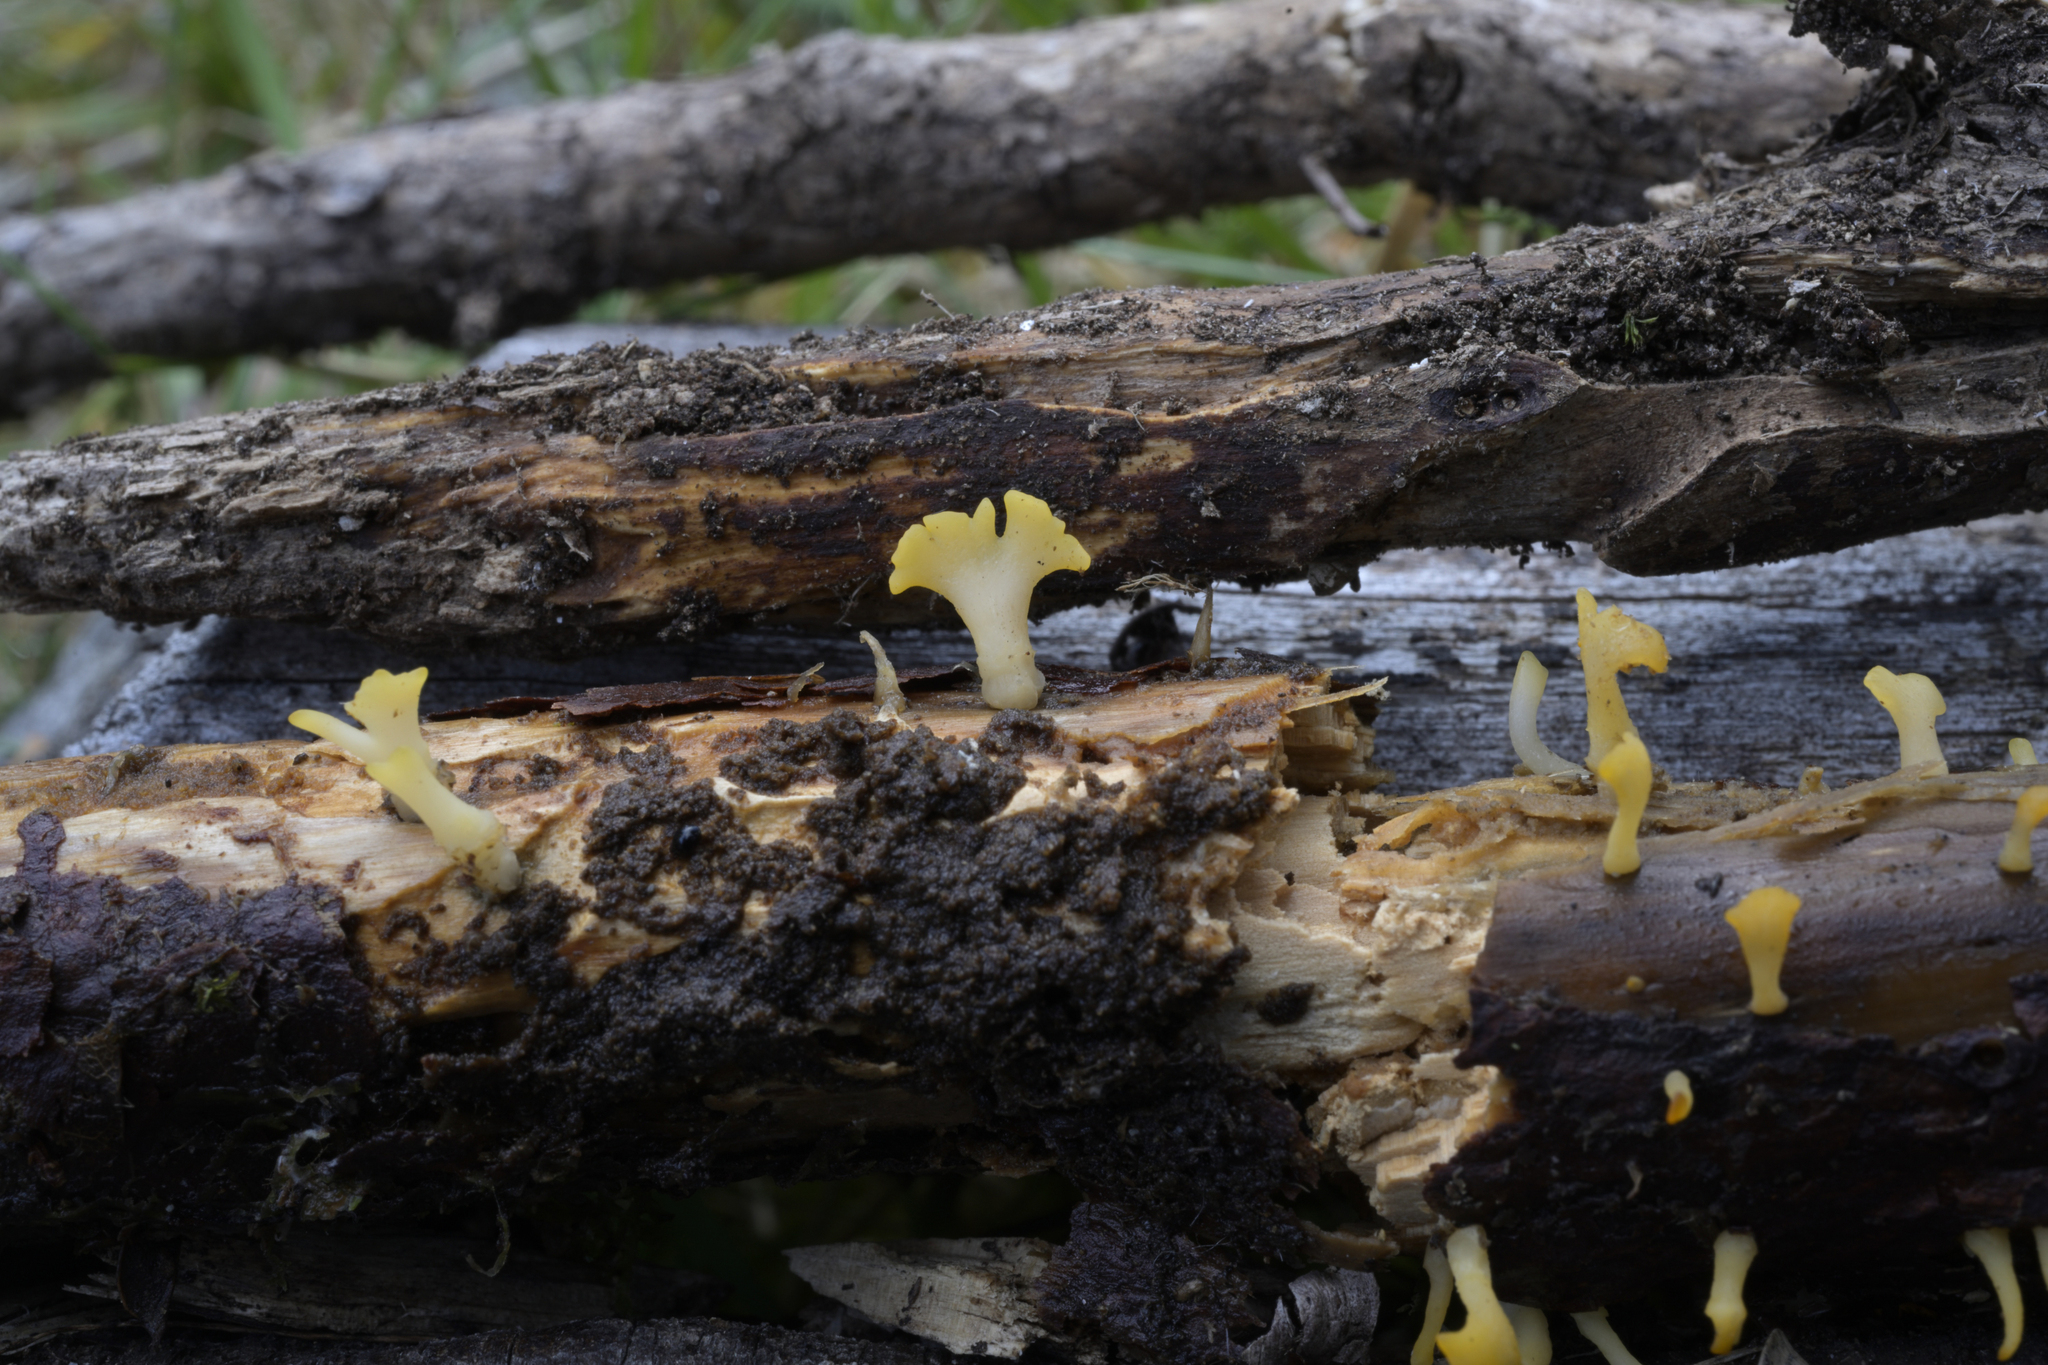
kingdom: Fungi
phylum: Basidiomycota
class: Dacrymycetes
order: Dacrymycetales
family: Dacrymycetaceae
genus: Calocera
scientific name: Calocera guepinioides
